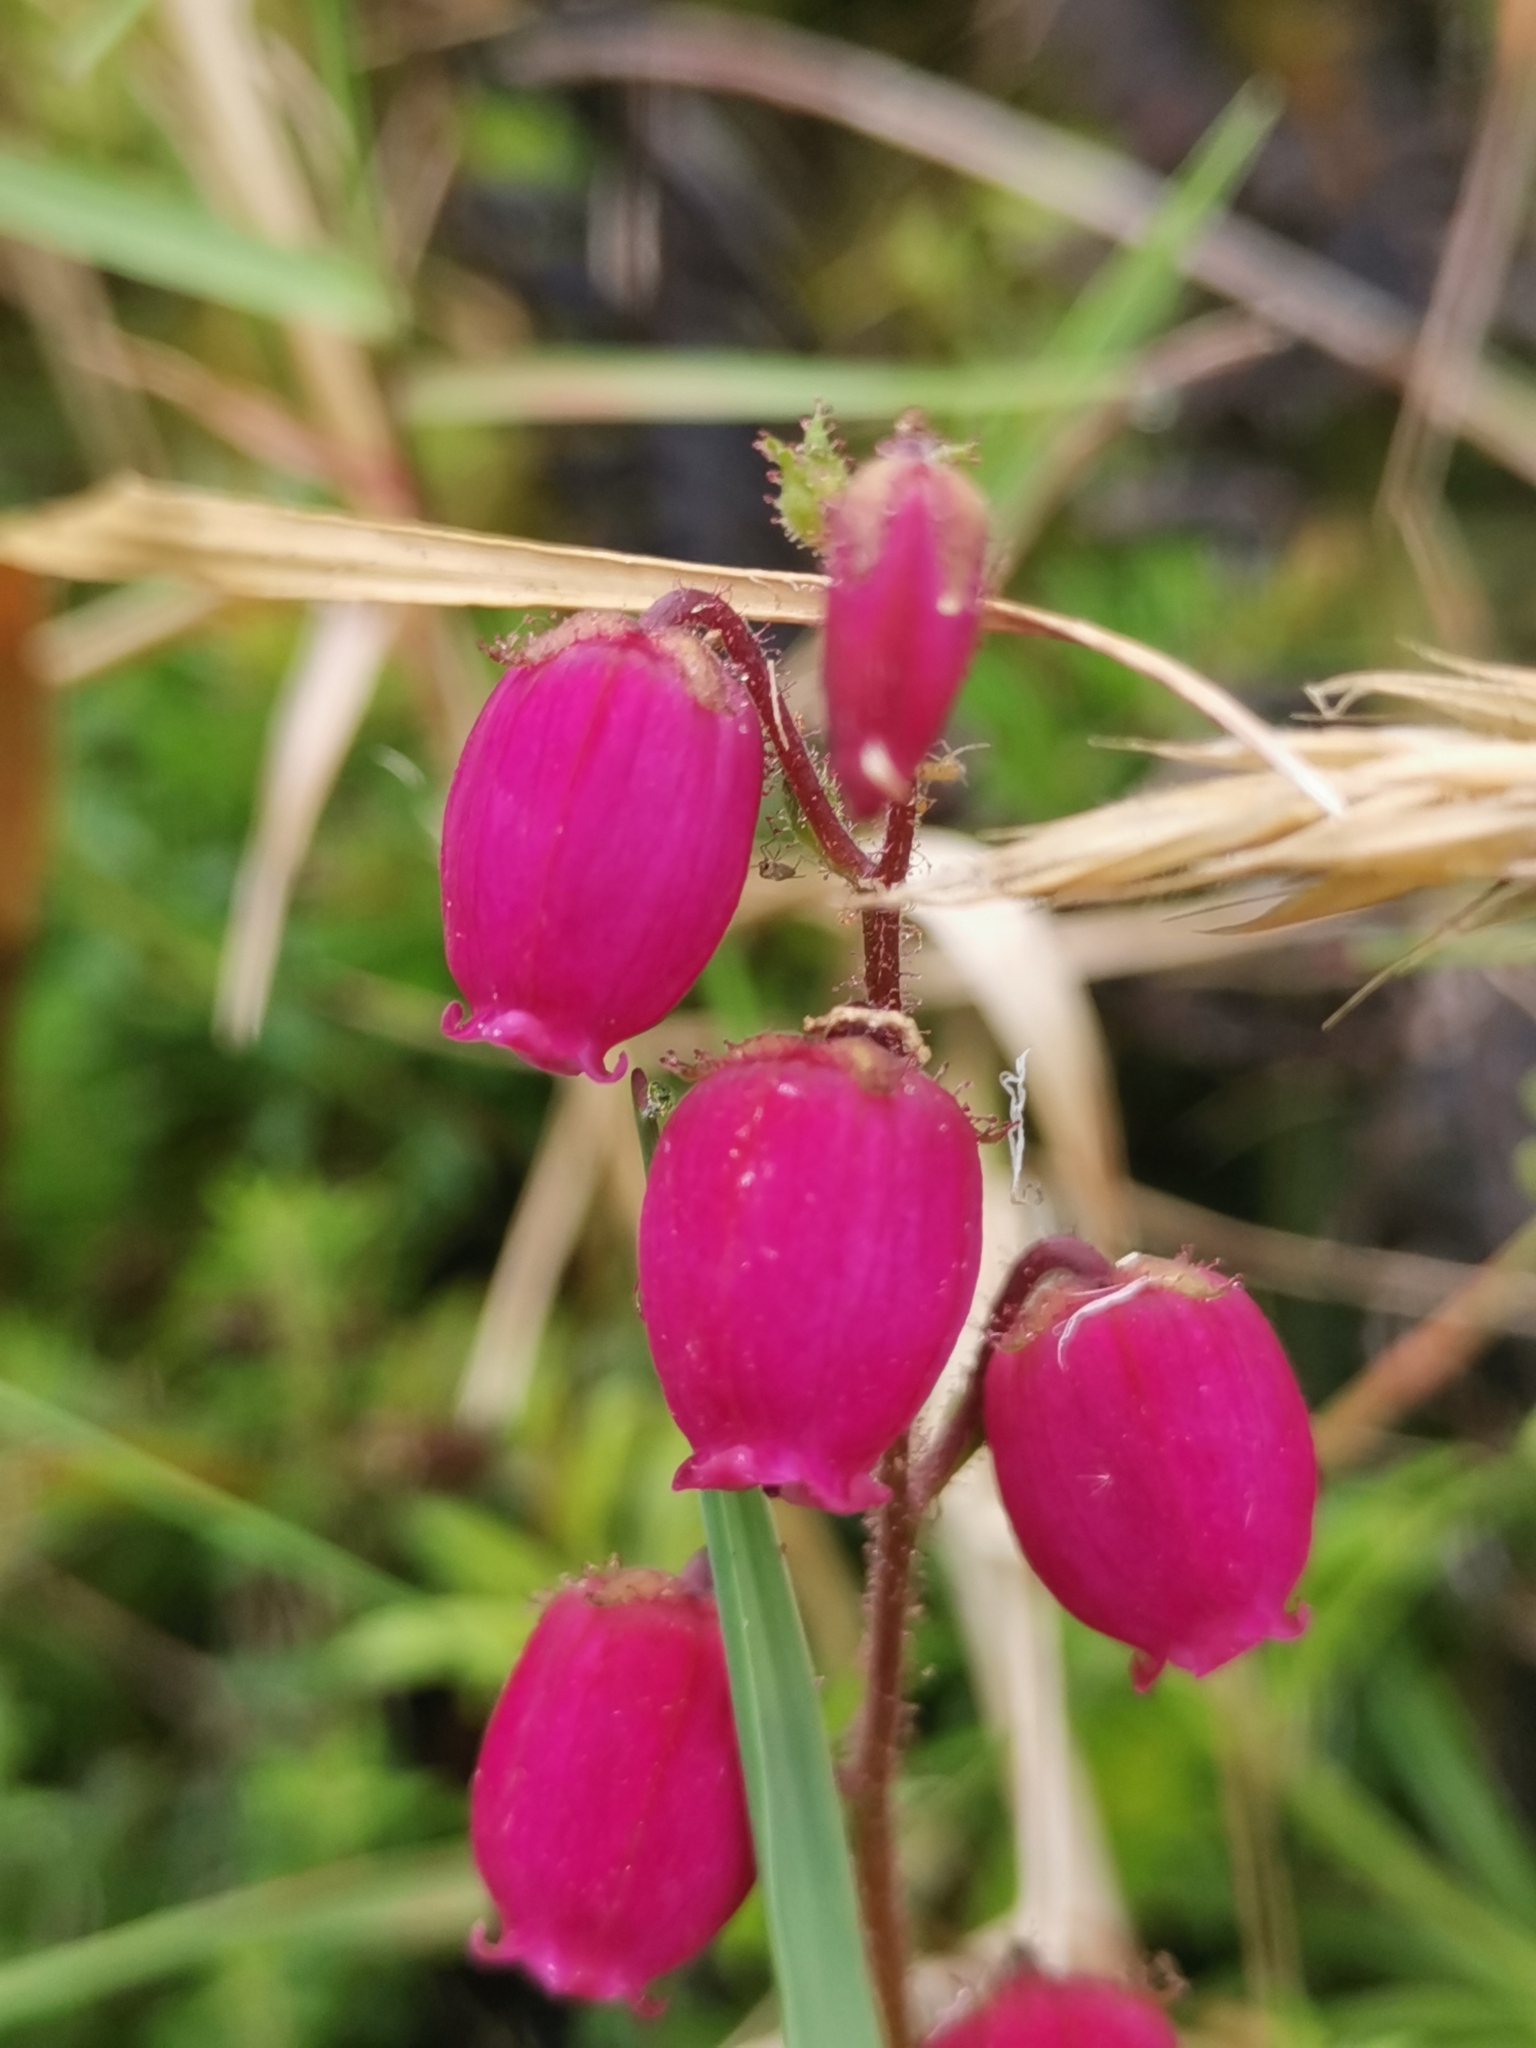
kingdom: Plantae
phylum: Tracheophyta
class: Magnoliopsida
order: Ericales
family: Ericaceae
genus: Daboecia
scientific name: Daboecia cantabrica
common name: St. dabeoc's-heath
